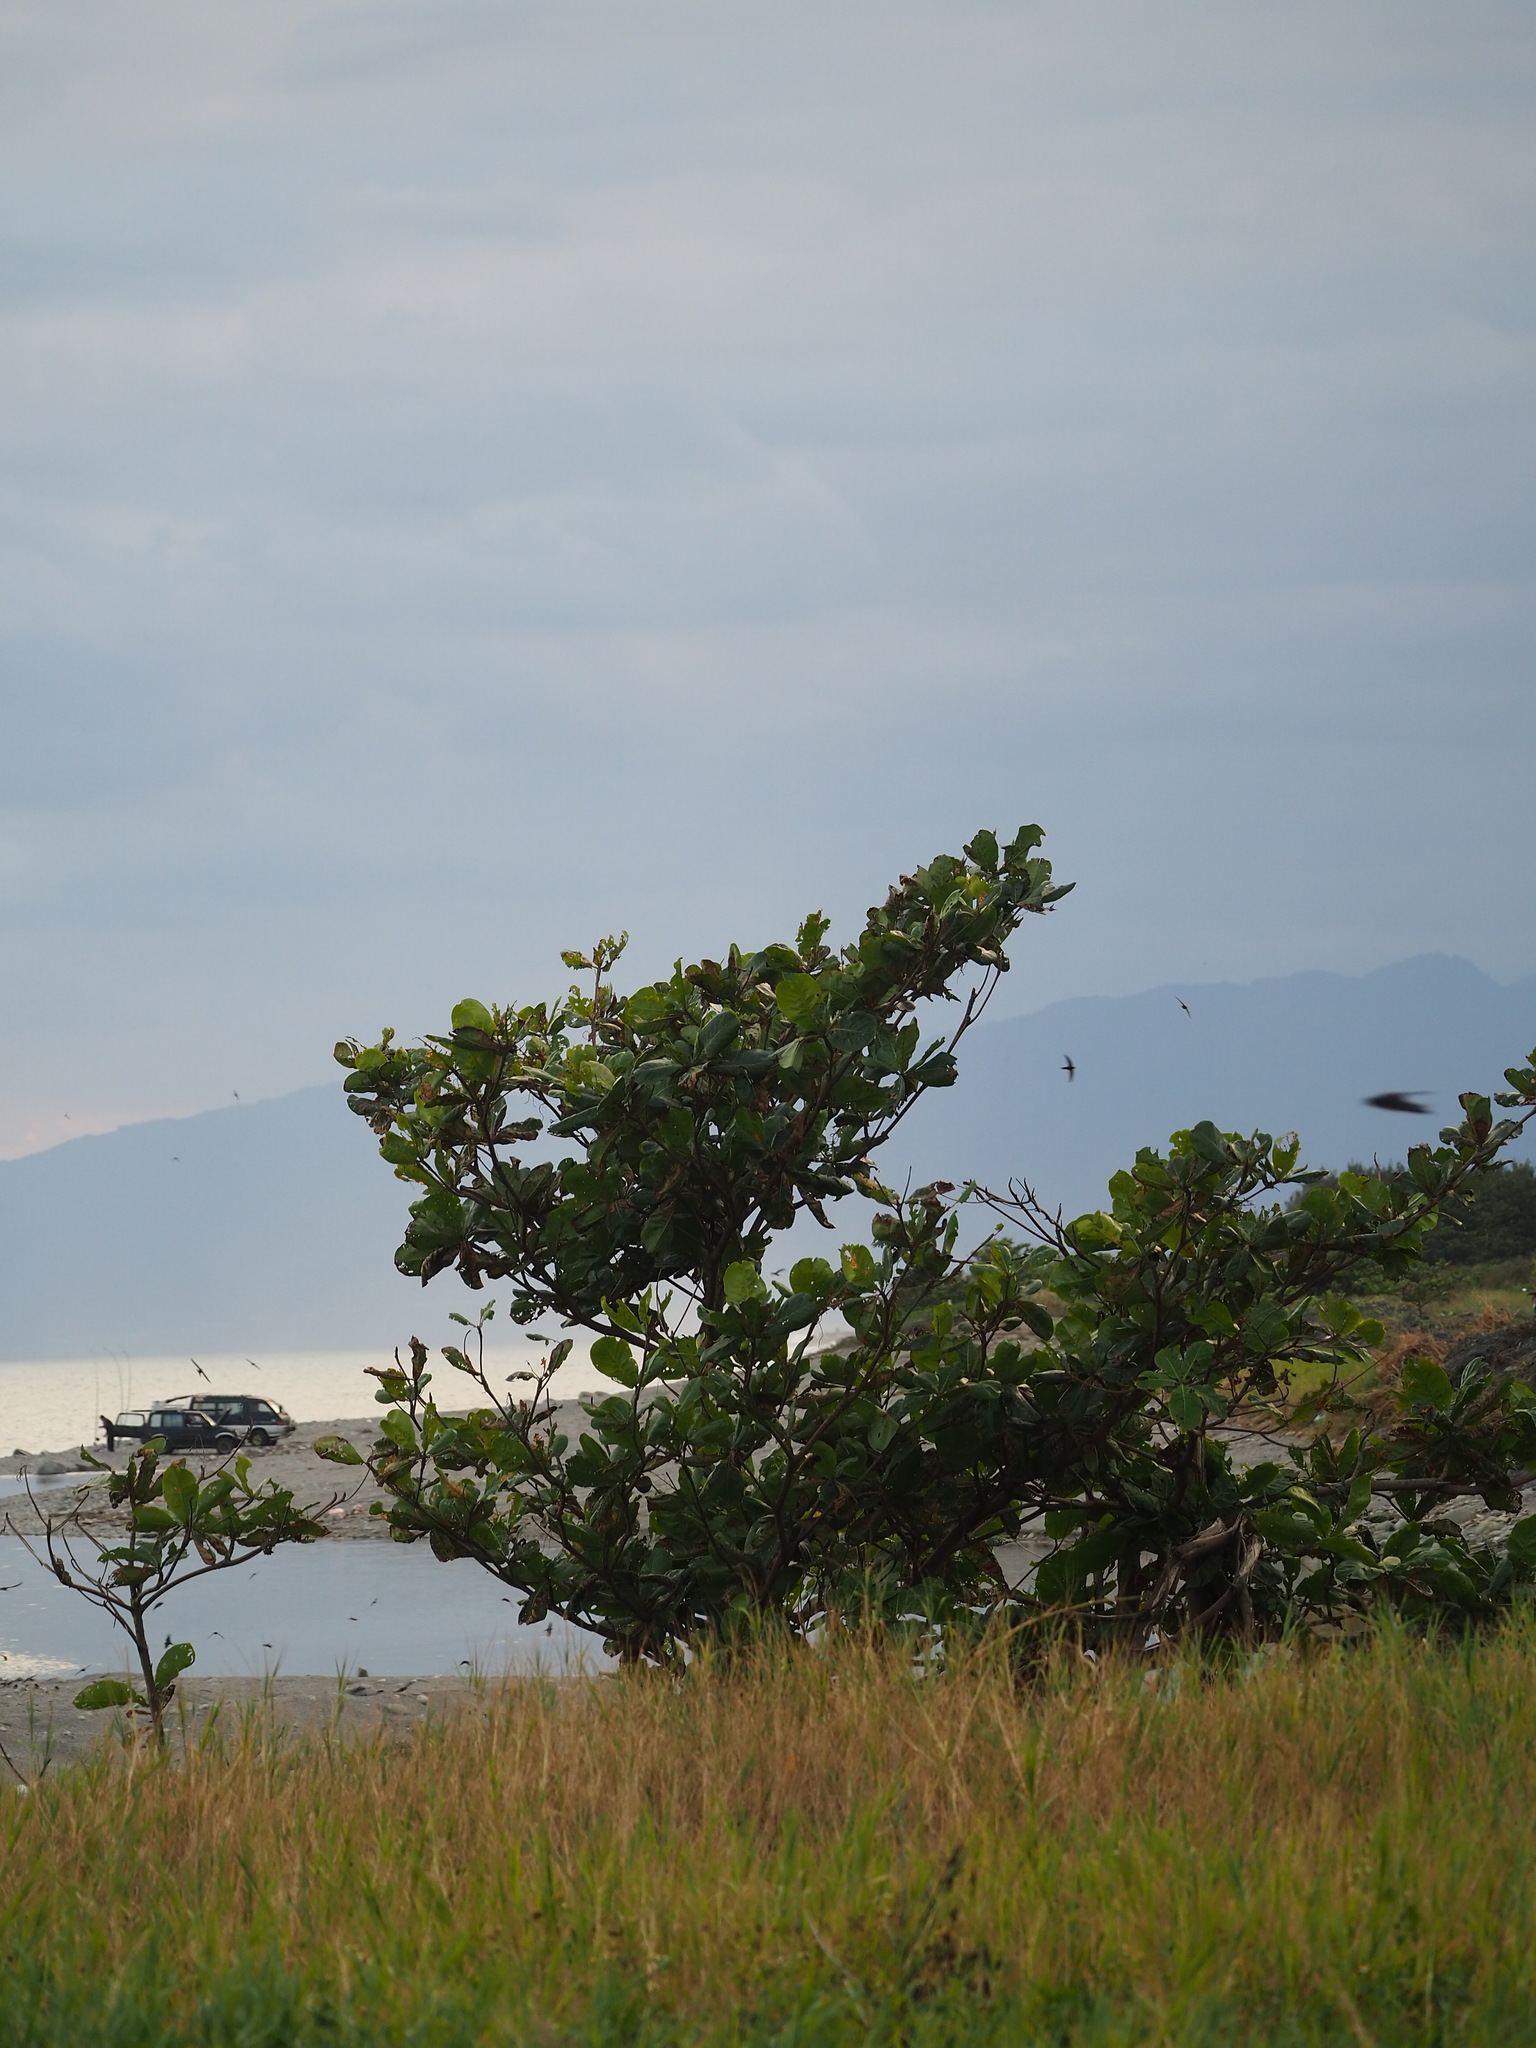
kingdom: Plantae
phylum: Tracheophyta
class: Magnoliopsida
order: Myrtales
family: Combretaceae
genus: Terminalia
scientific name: Terminalia catappa
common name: Tropical almond
